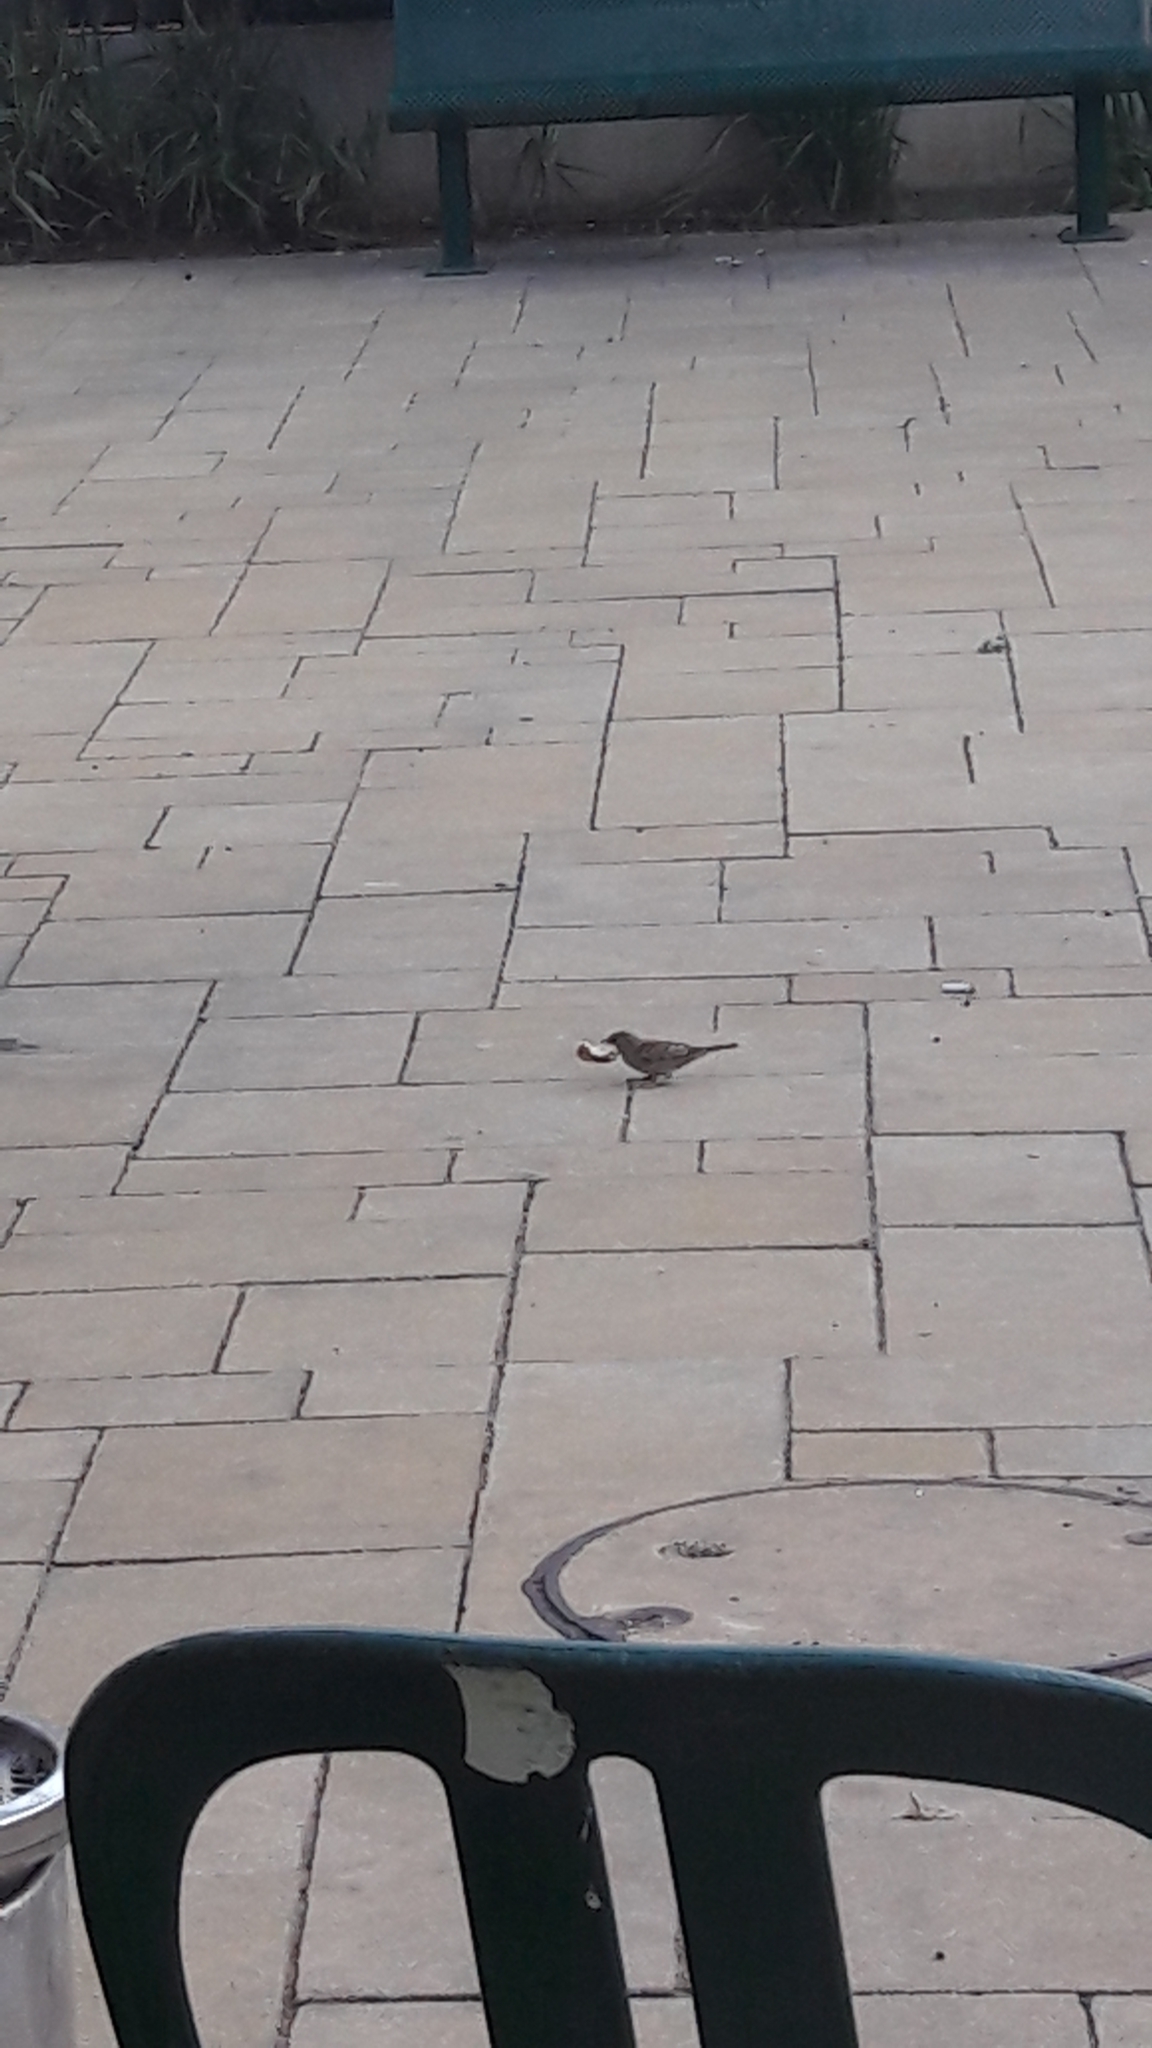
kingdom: Animalia
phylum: Chordata
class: Aves
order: Passeriformes
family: Passeridae
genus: Passer
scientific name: Passer domesticus
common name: House sparrow
